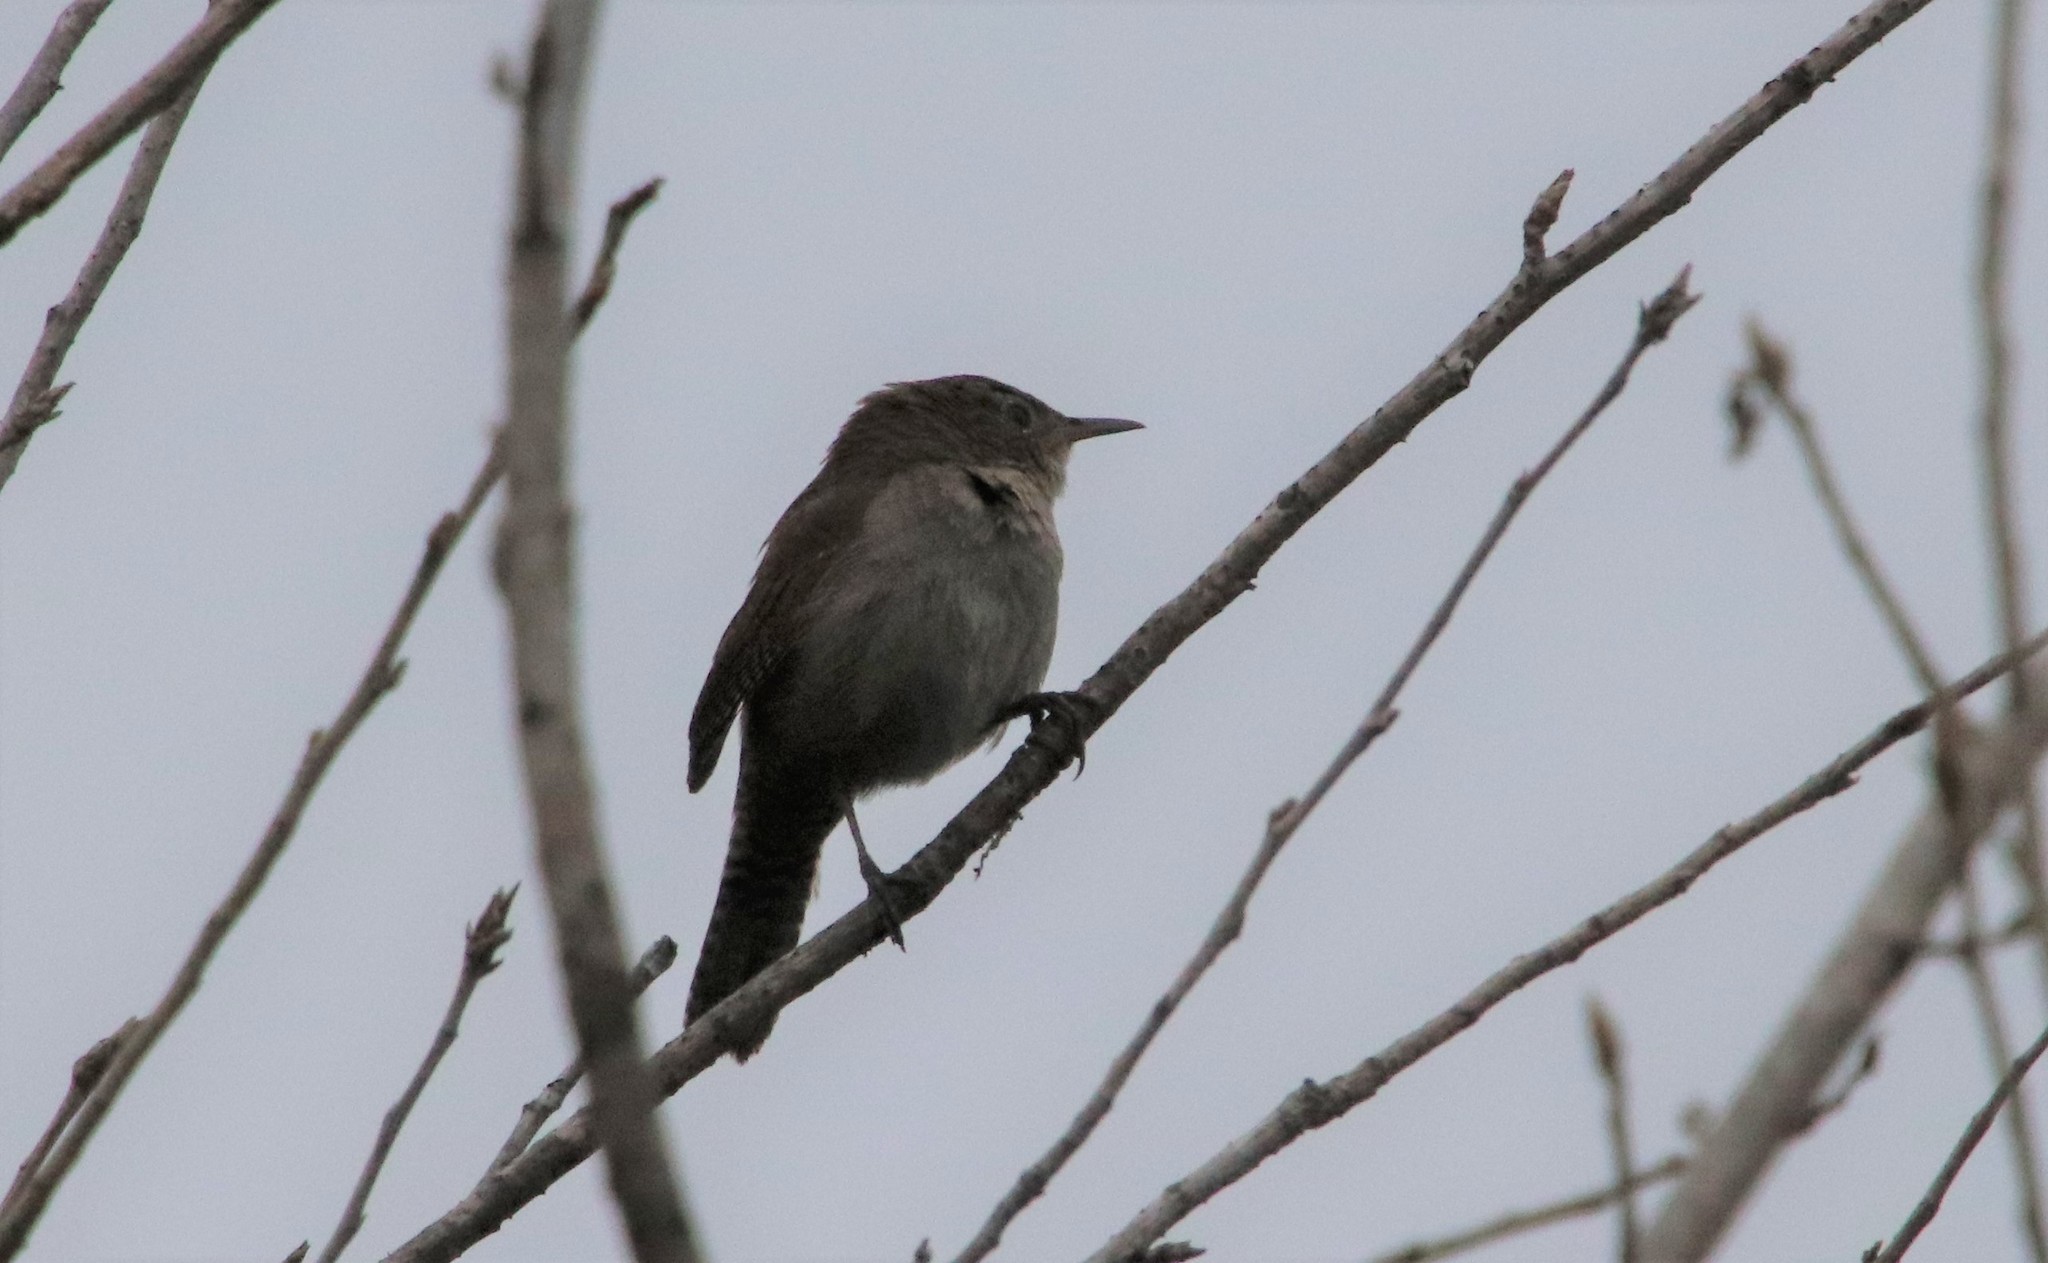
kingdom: Animalia
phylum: Chordata
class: Aves
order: Passeriformes
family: Troglodytidae
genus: Troglodytes
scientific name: Troglodytes aedon
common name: House wren
